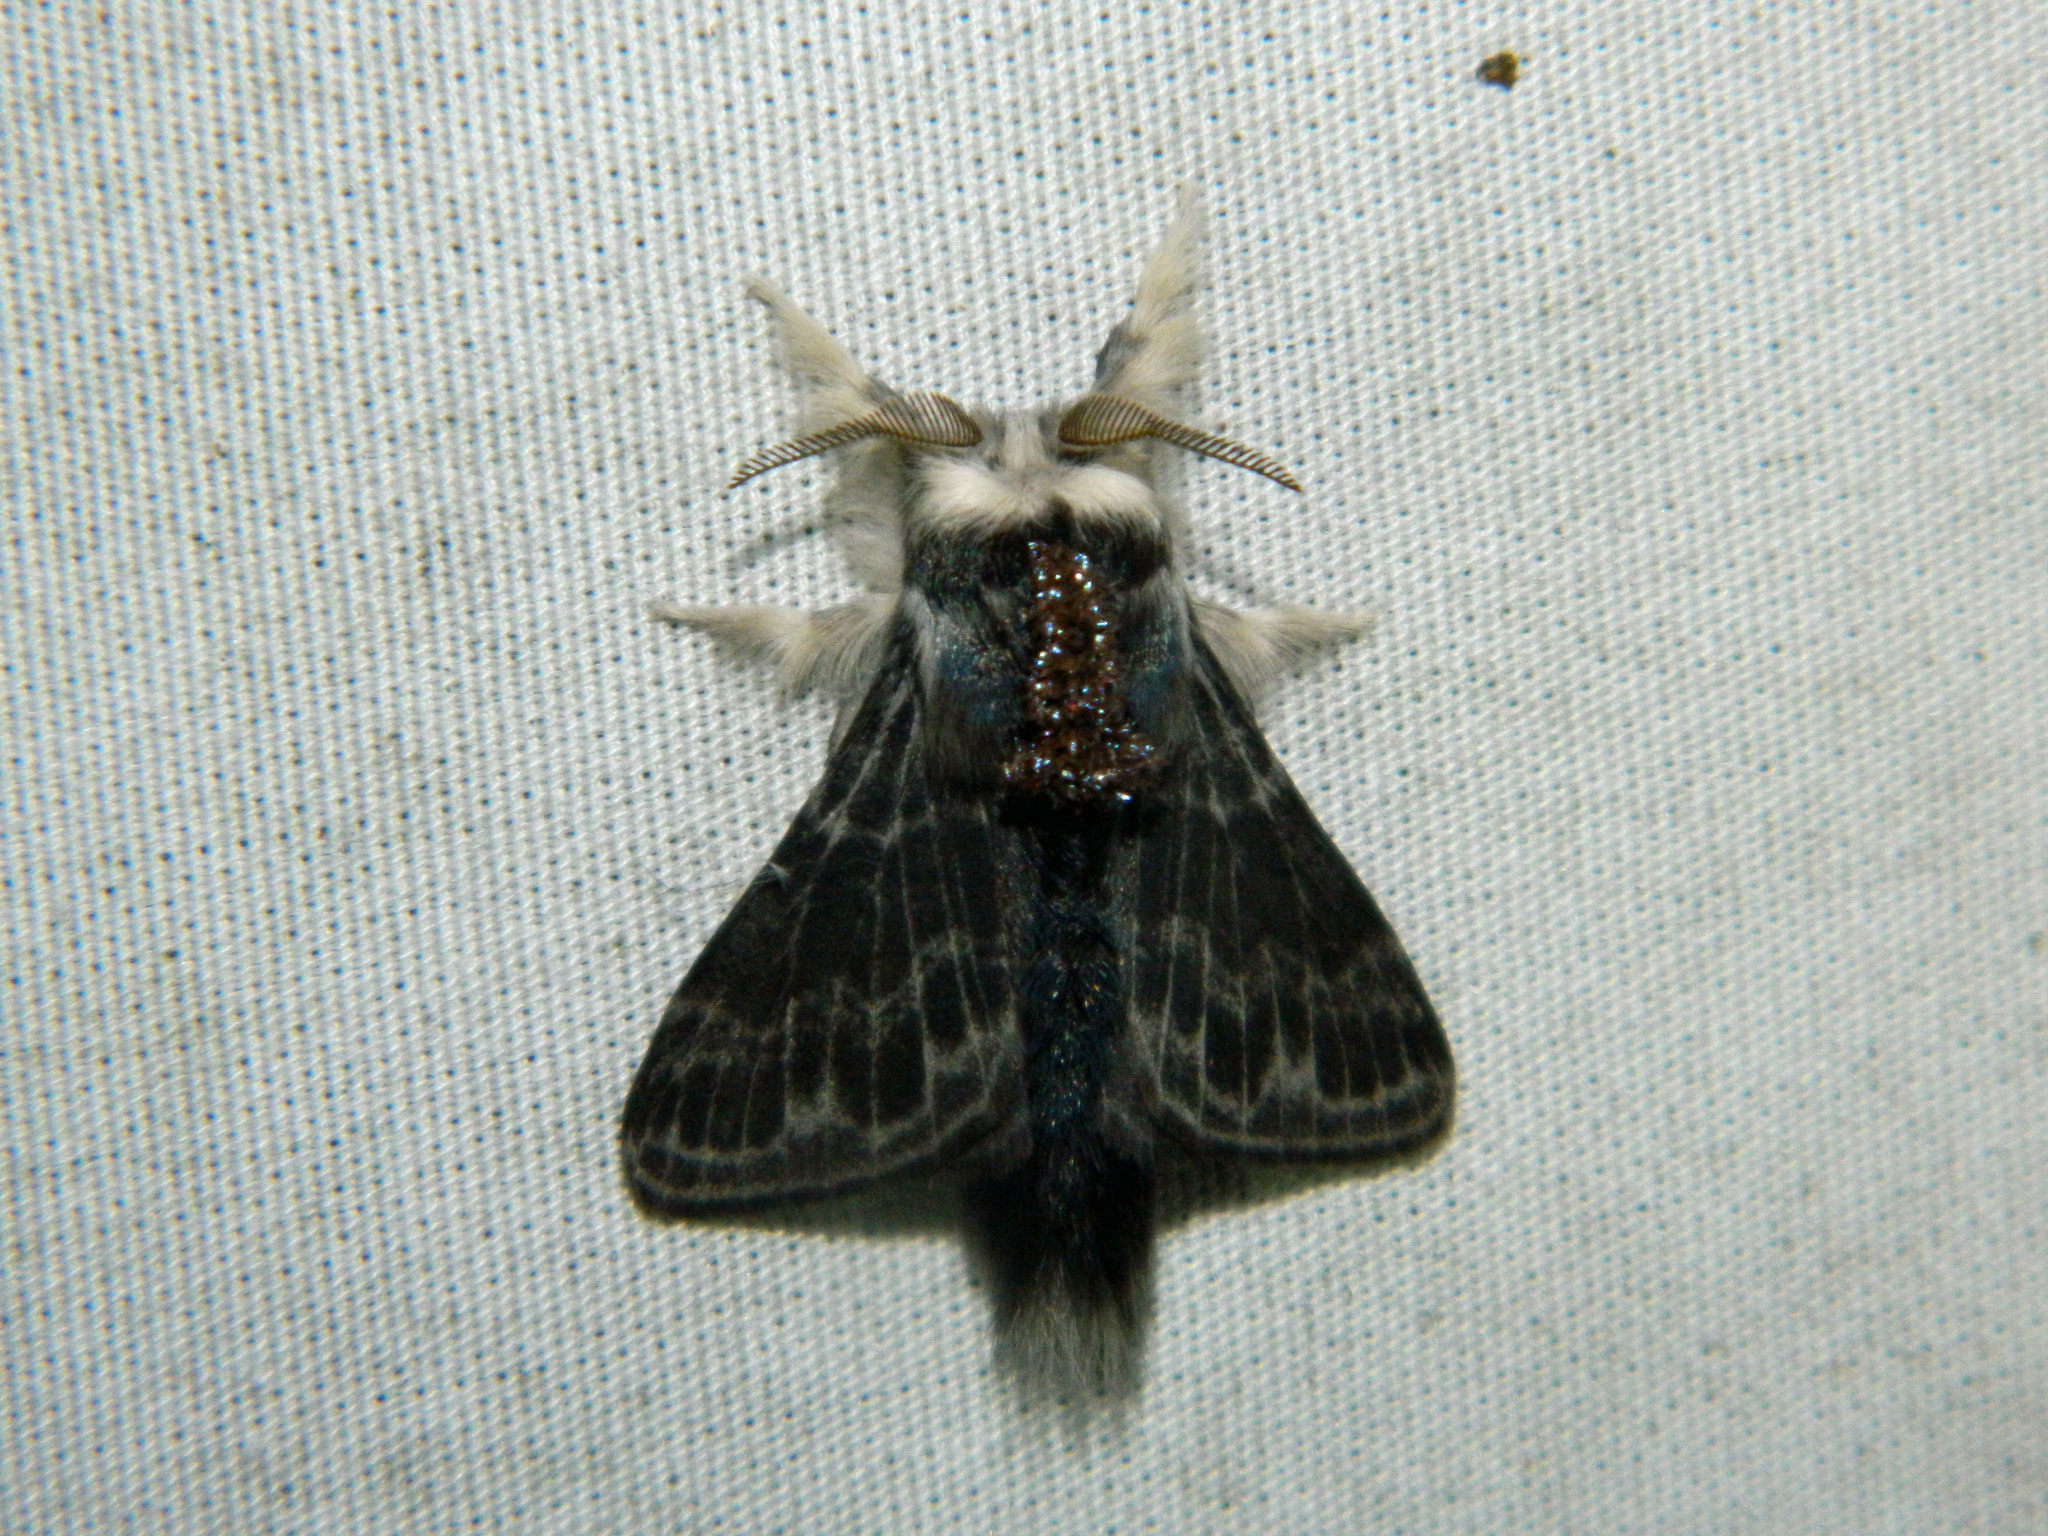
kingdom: Animalia
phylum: Arthropoda
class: Insecta
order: Lepidoptera
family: Lasiocampidae
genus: Tolype
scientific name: Tolype laricis
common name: Larch tolype moth
